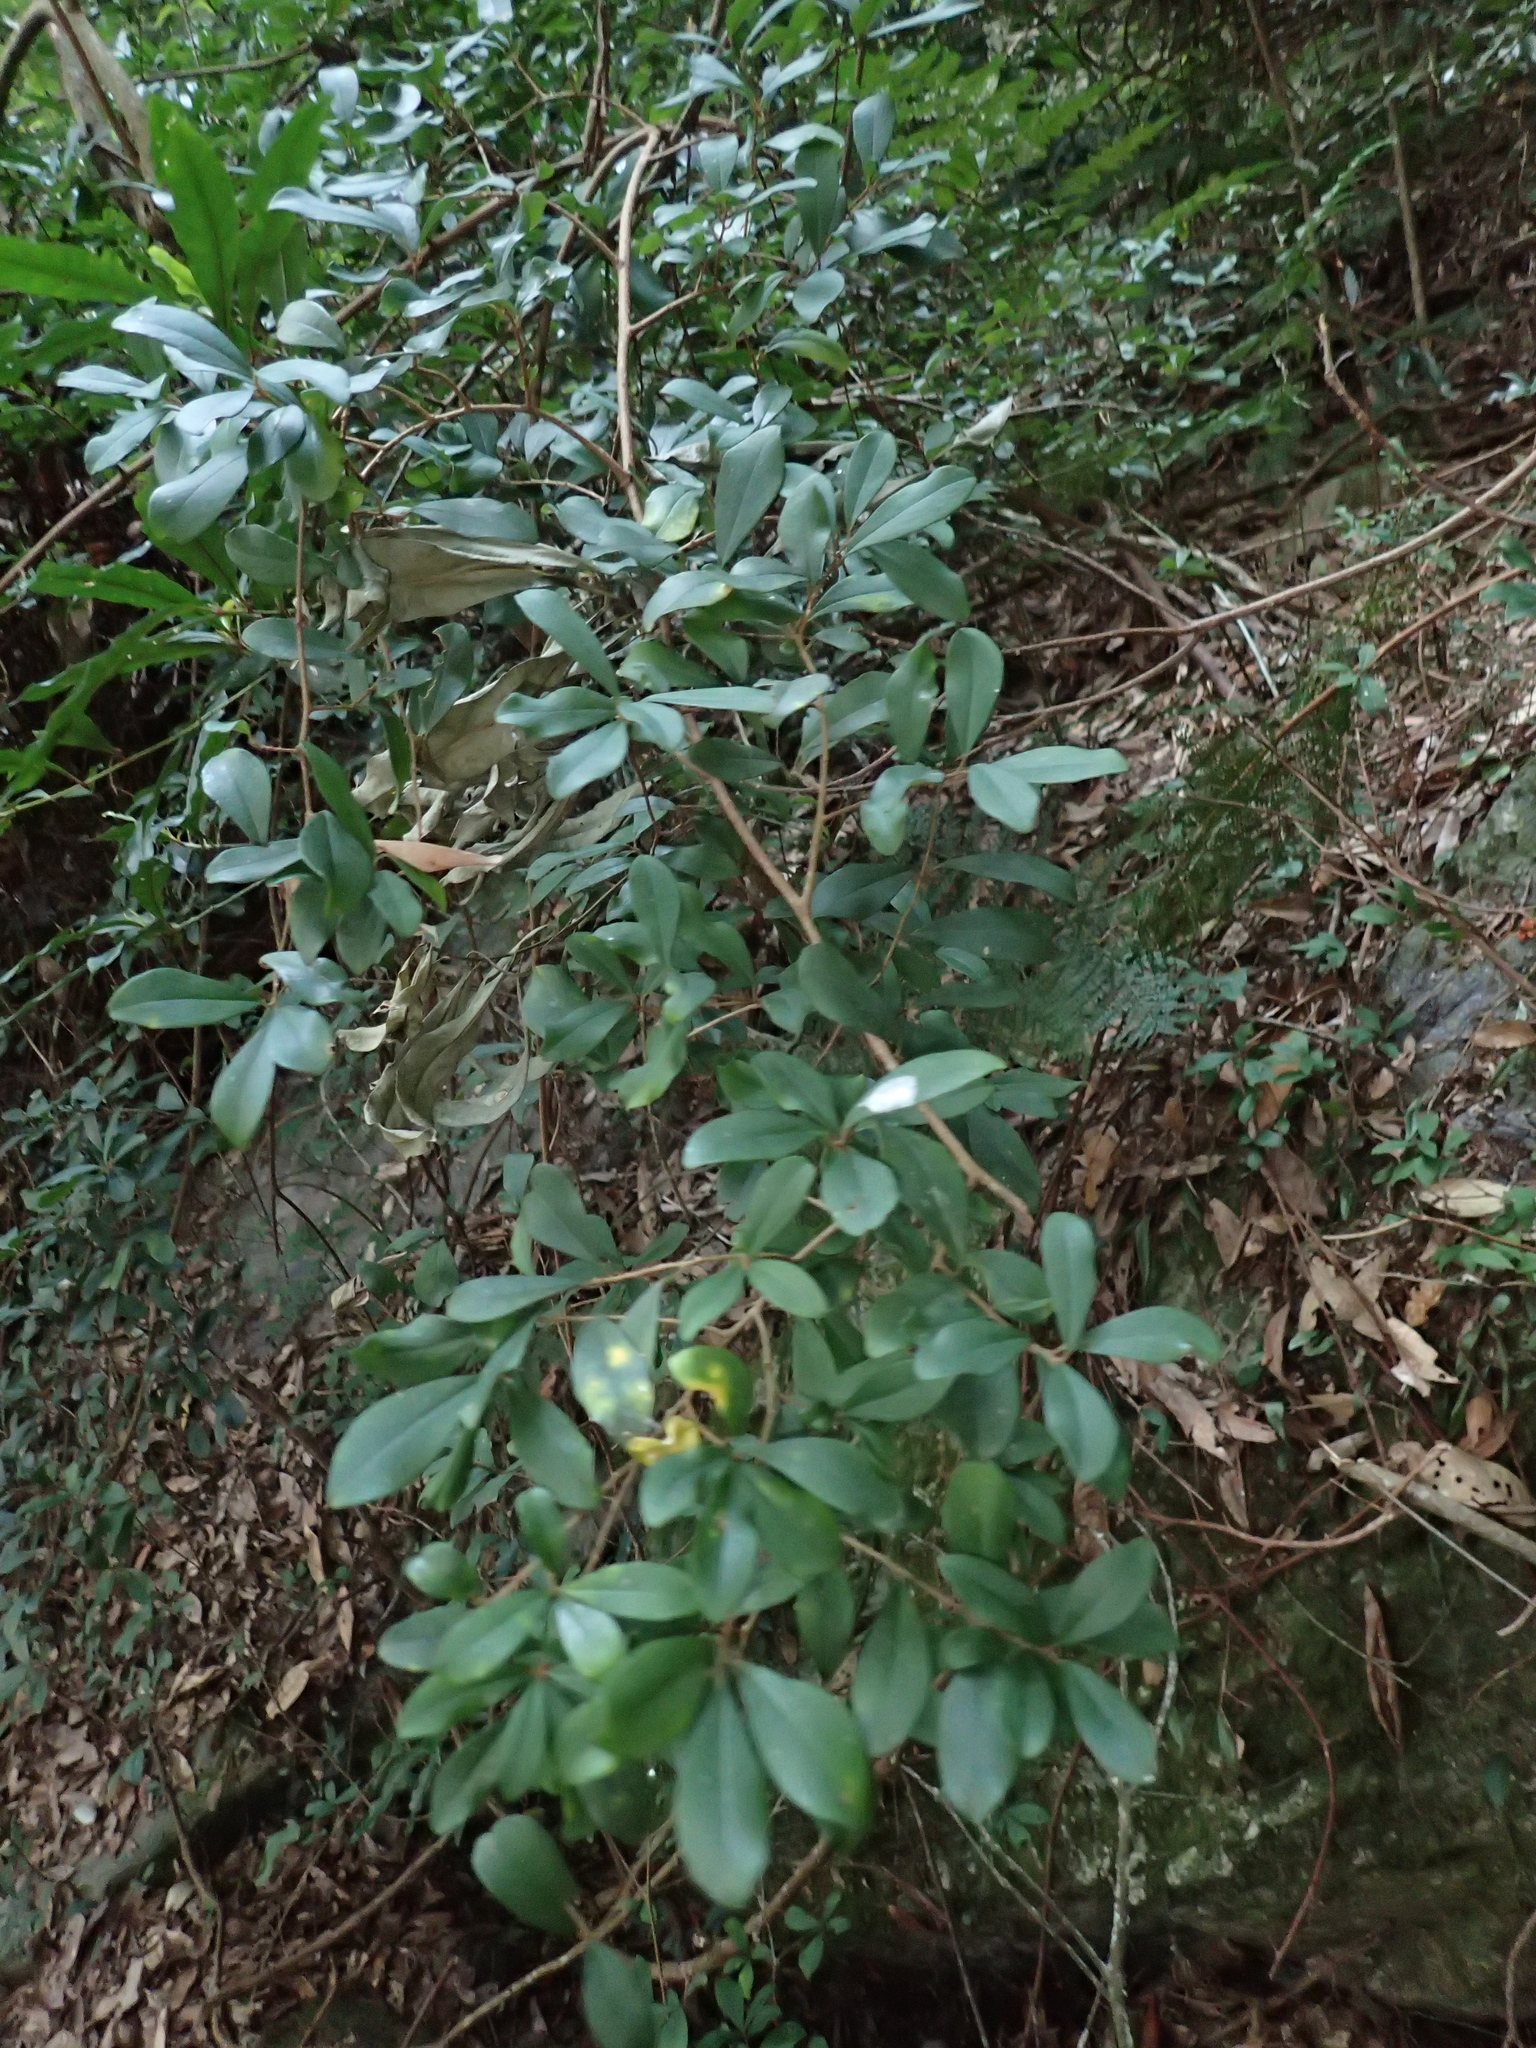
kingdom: Plantae
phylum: Tracheophyta
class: Magnoliopsida
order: Ericales
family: Primulaceae
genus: Embelia
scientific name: Embelia laeta
